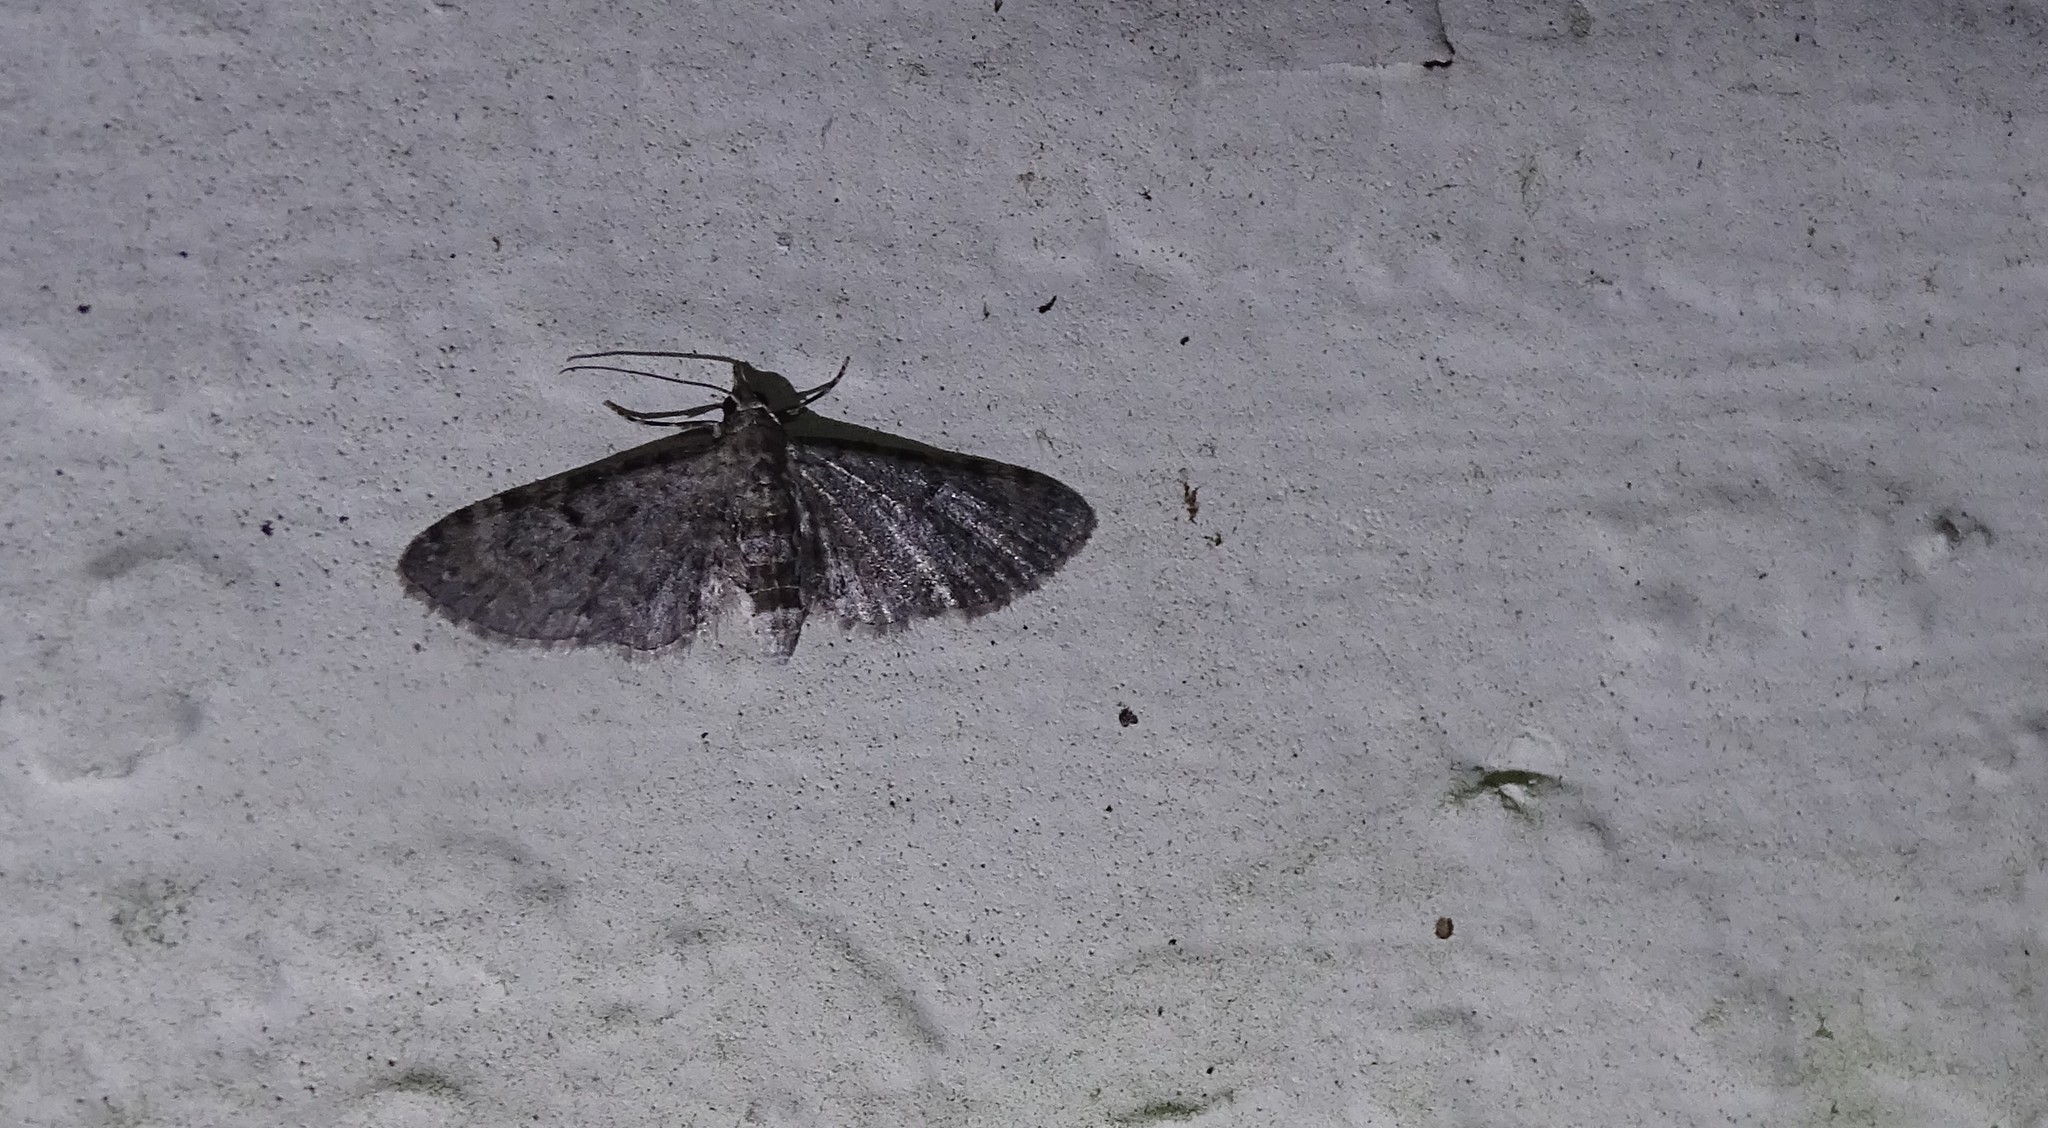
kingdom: Animalia
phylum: Arthropoda
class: Insecta
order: Lepidoptera
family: Geometridae
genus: Eupithecia
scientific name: Eupithecia miserulata
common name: Common eupithecia
